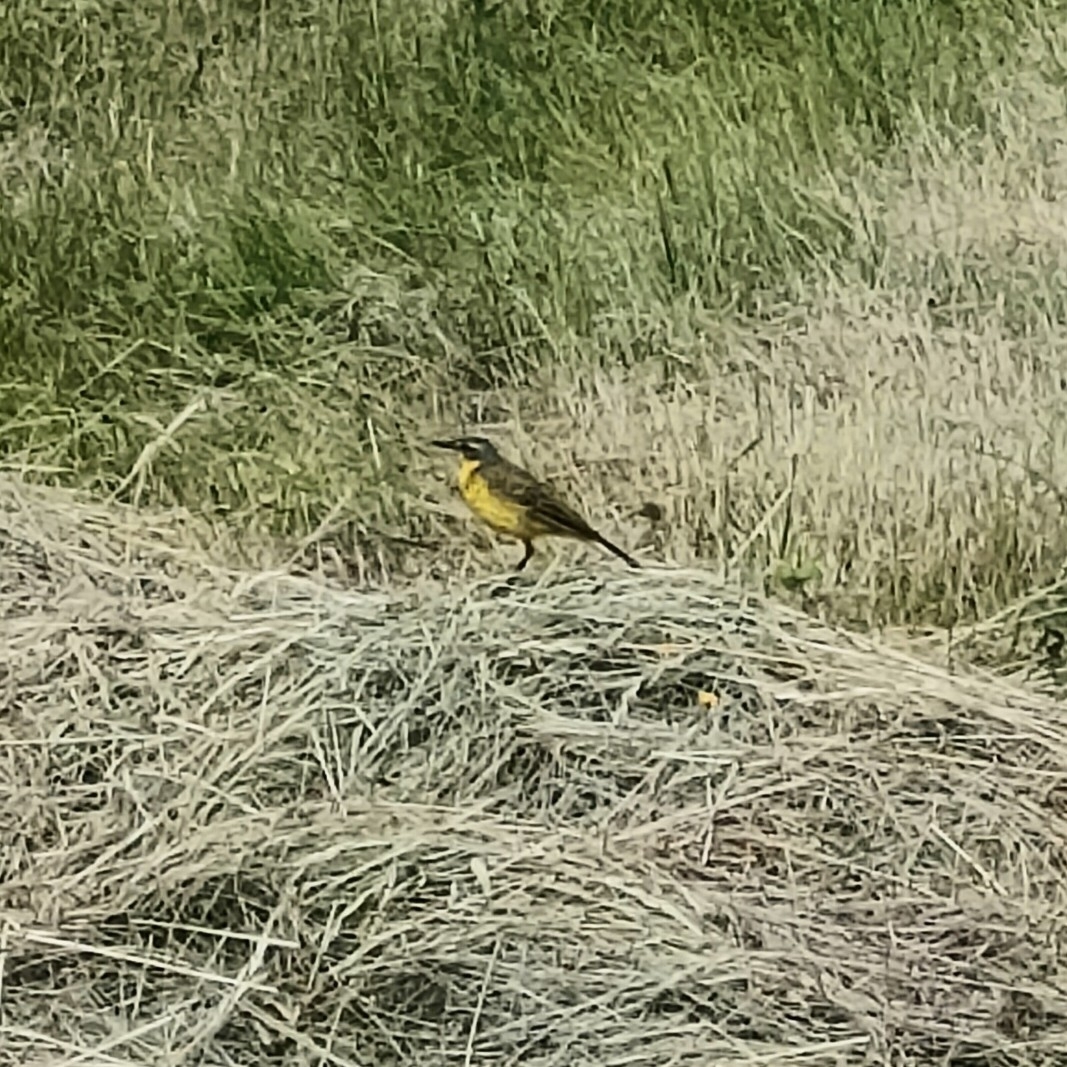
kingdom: Animalia
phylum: Chordata
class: Aves
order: Passeriformes
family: Motacillidae
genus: Motacilla
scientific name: Motacilla flava
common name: Western yellow wagtail
